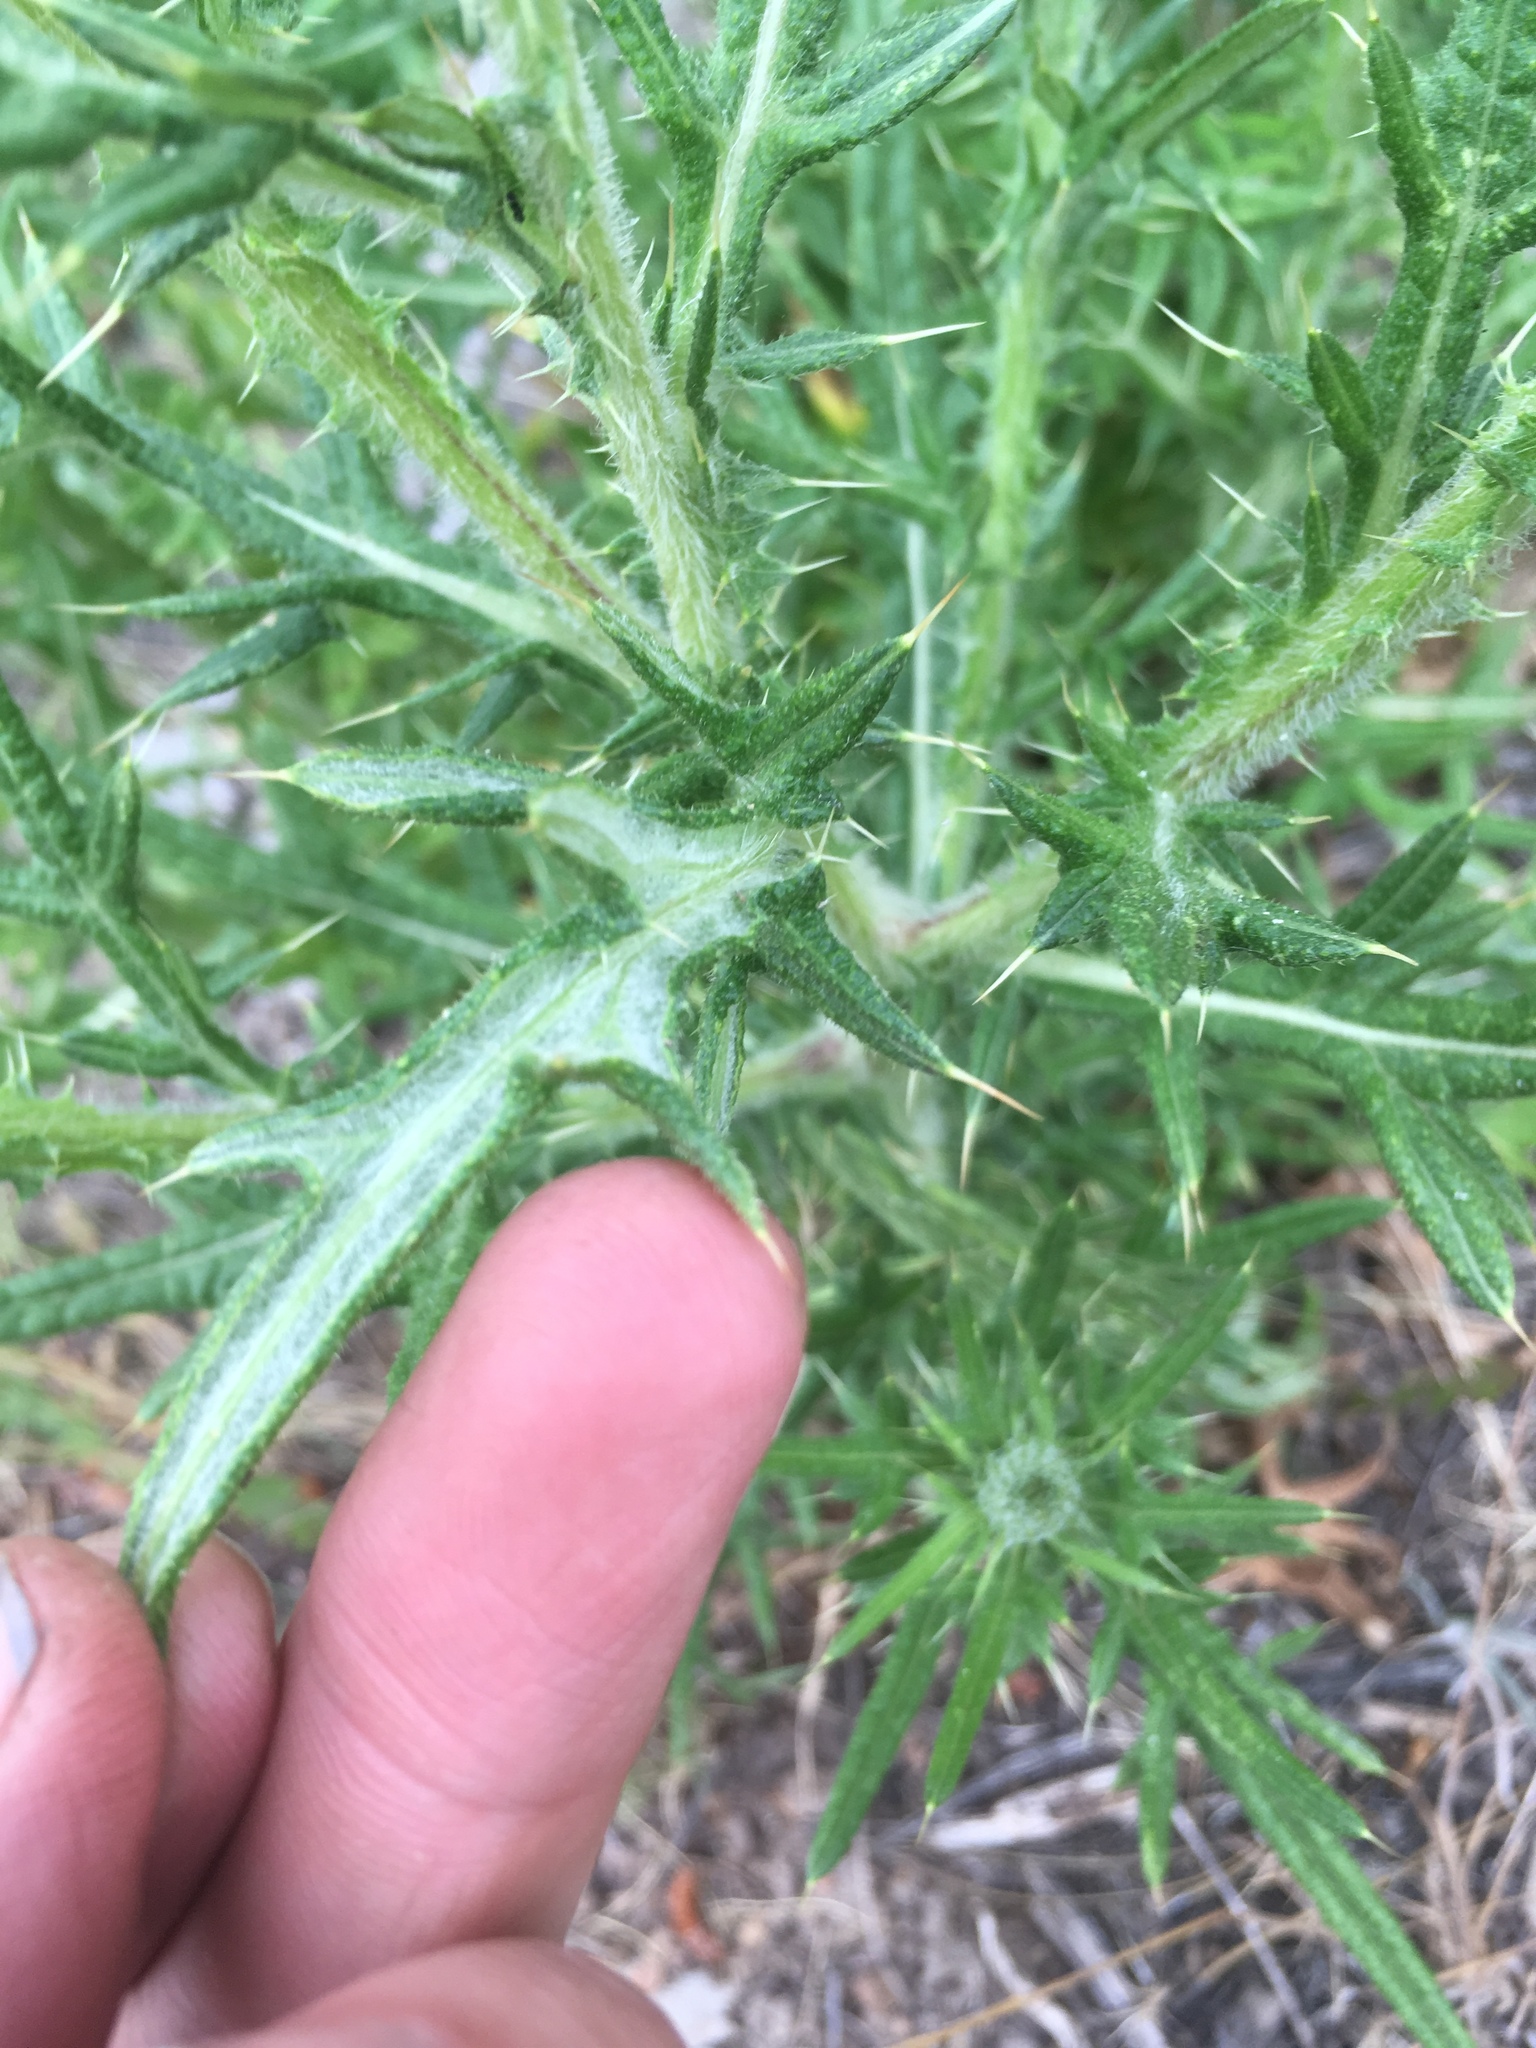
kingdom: Plantae
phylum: Tracheophyta
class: Magnoliopsida
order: Asterales
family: Asteraceae
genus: Cirsium
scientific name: Cirsium vulgare
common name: Bull thistle
